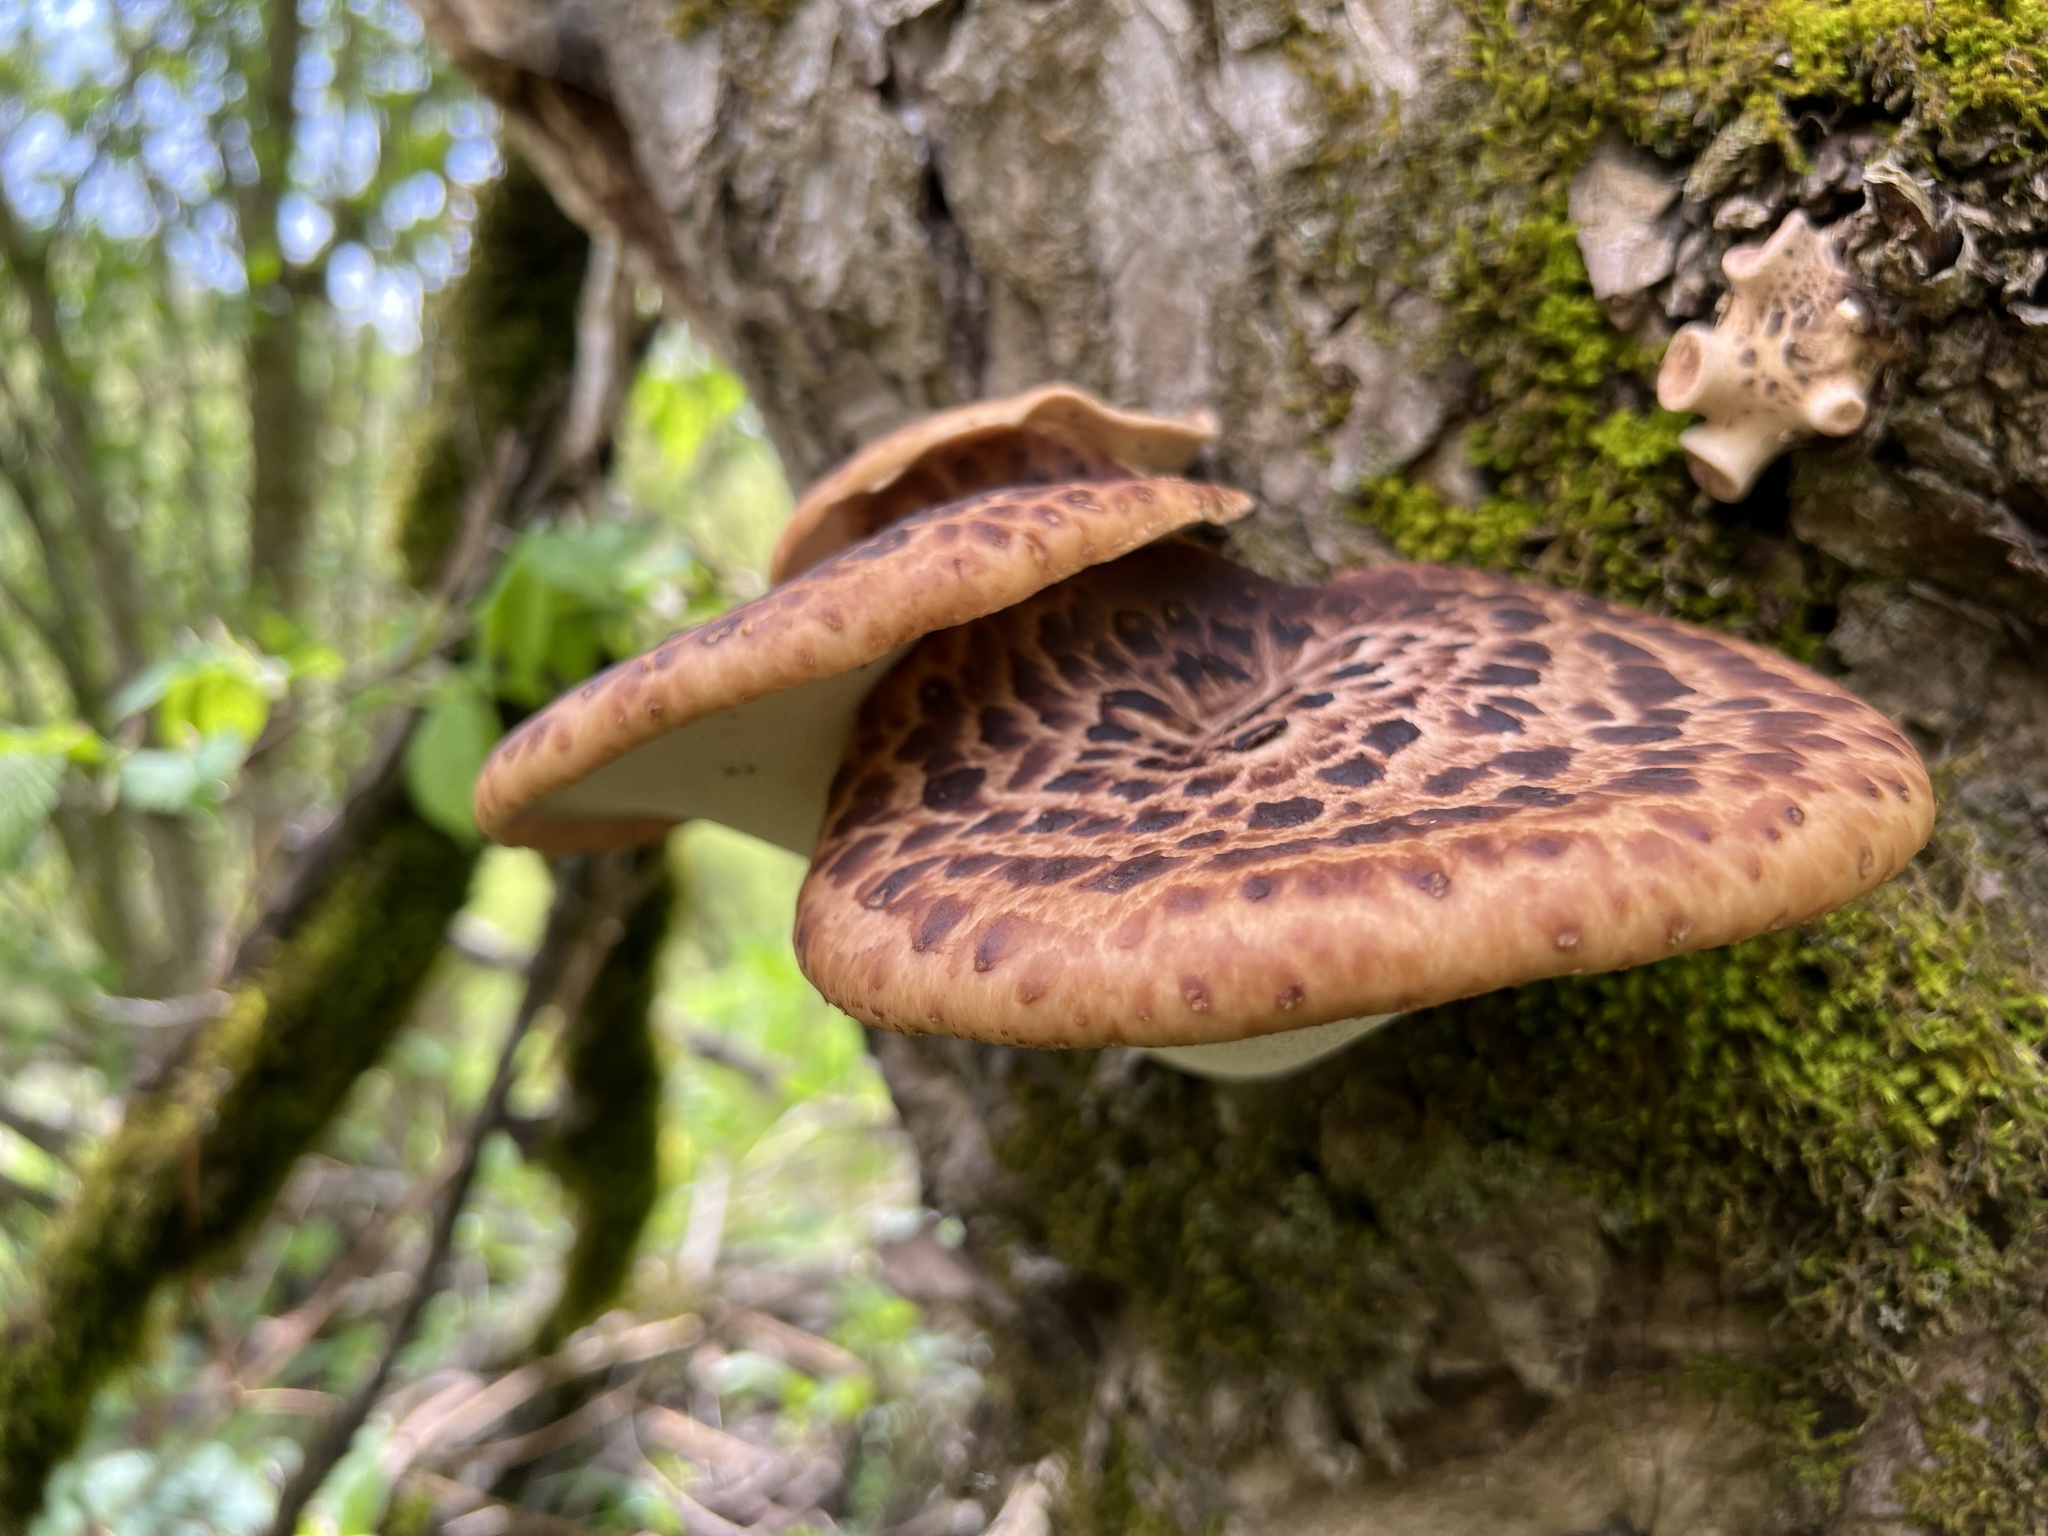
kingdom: Fungi
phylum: Basidiomycota
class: Agaricomycetes
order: Polyporales
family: Polyporaceae
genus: Cerioporus
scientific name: Cerioporus squamosus
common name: Dryad's saddle
